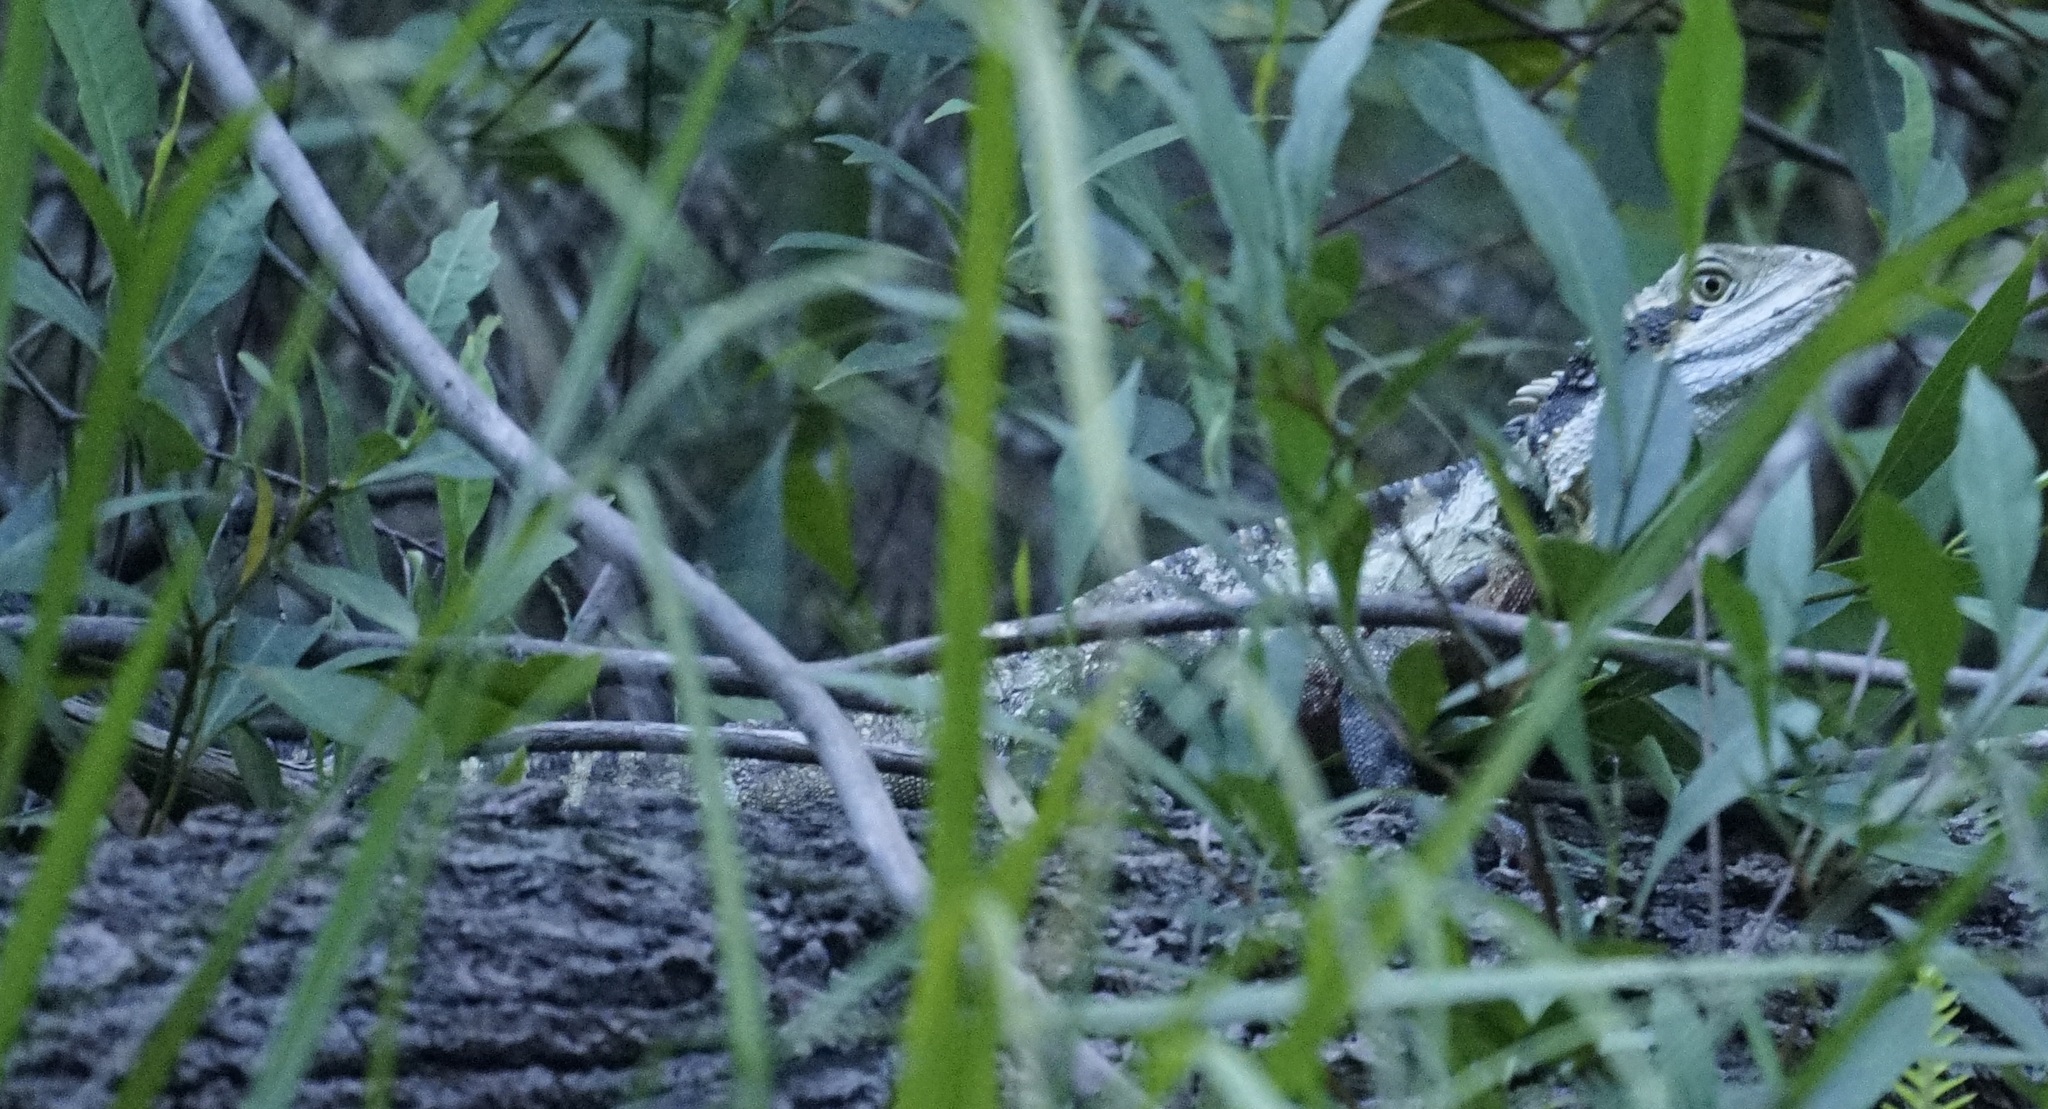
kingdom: Animalia
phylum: Chordata
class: Squamata
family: Agamidae
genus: Intellagama
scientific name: Intellagama lesueurii
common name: Eastern water dragon
